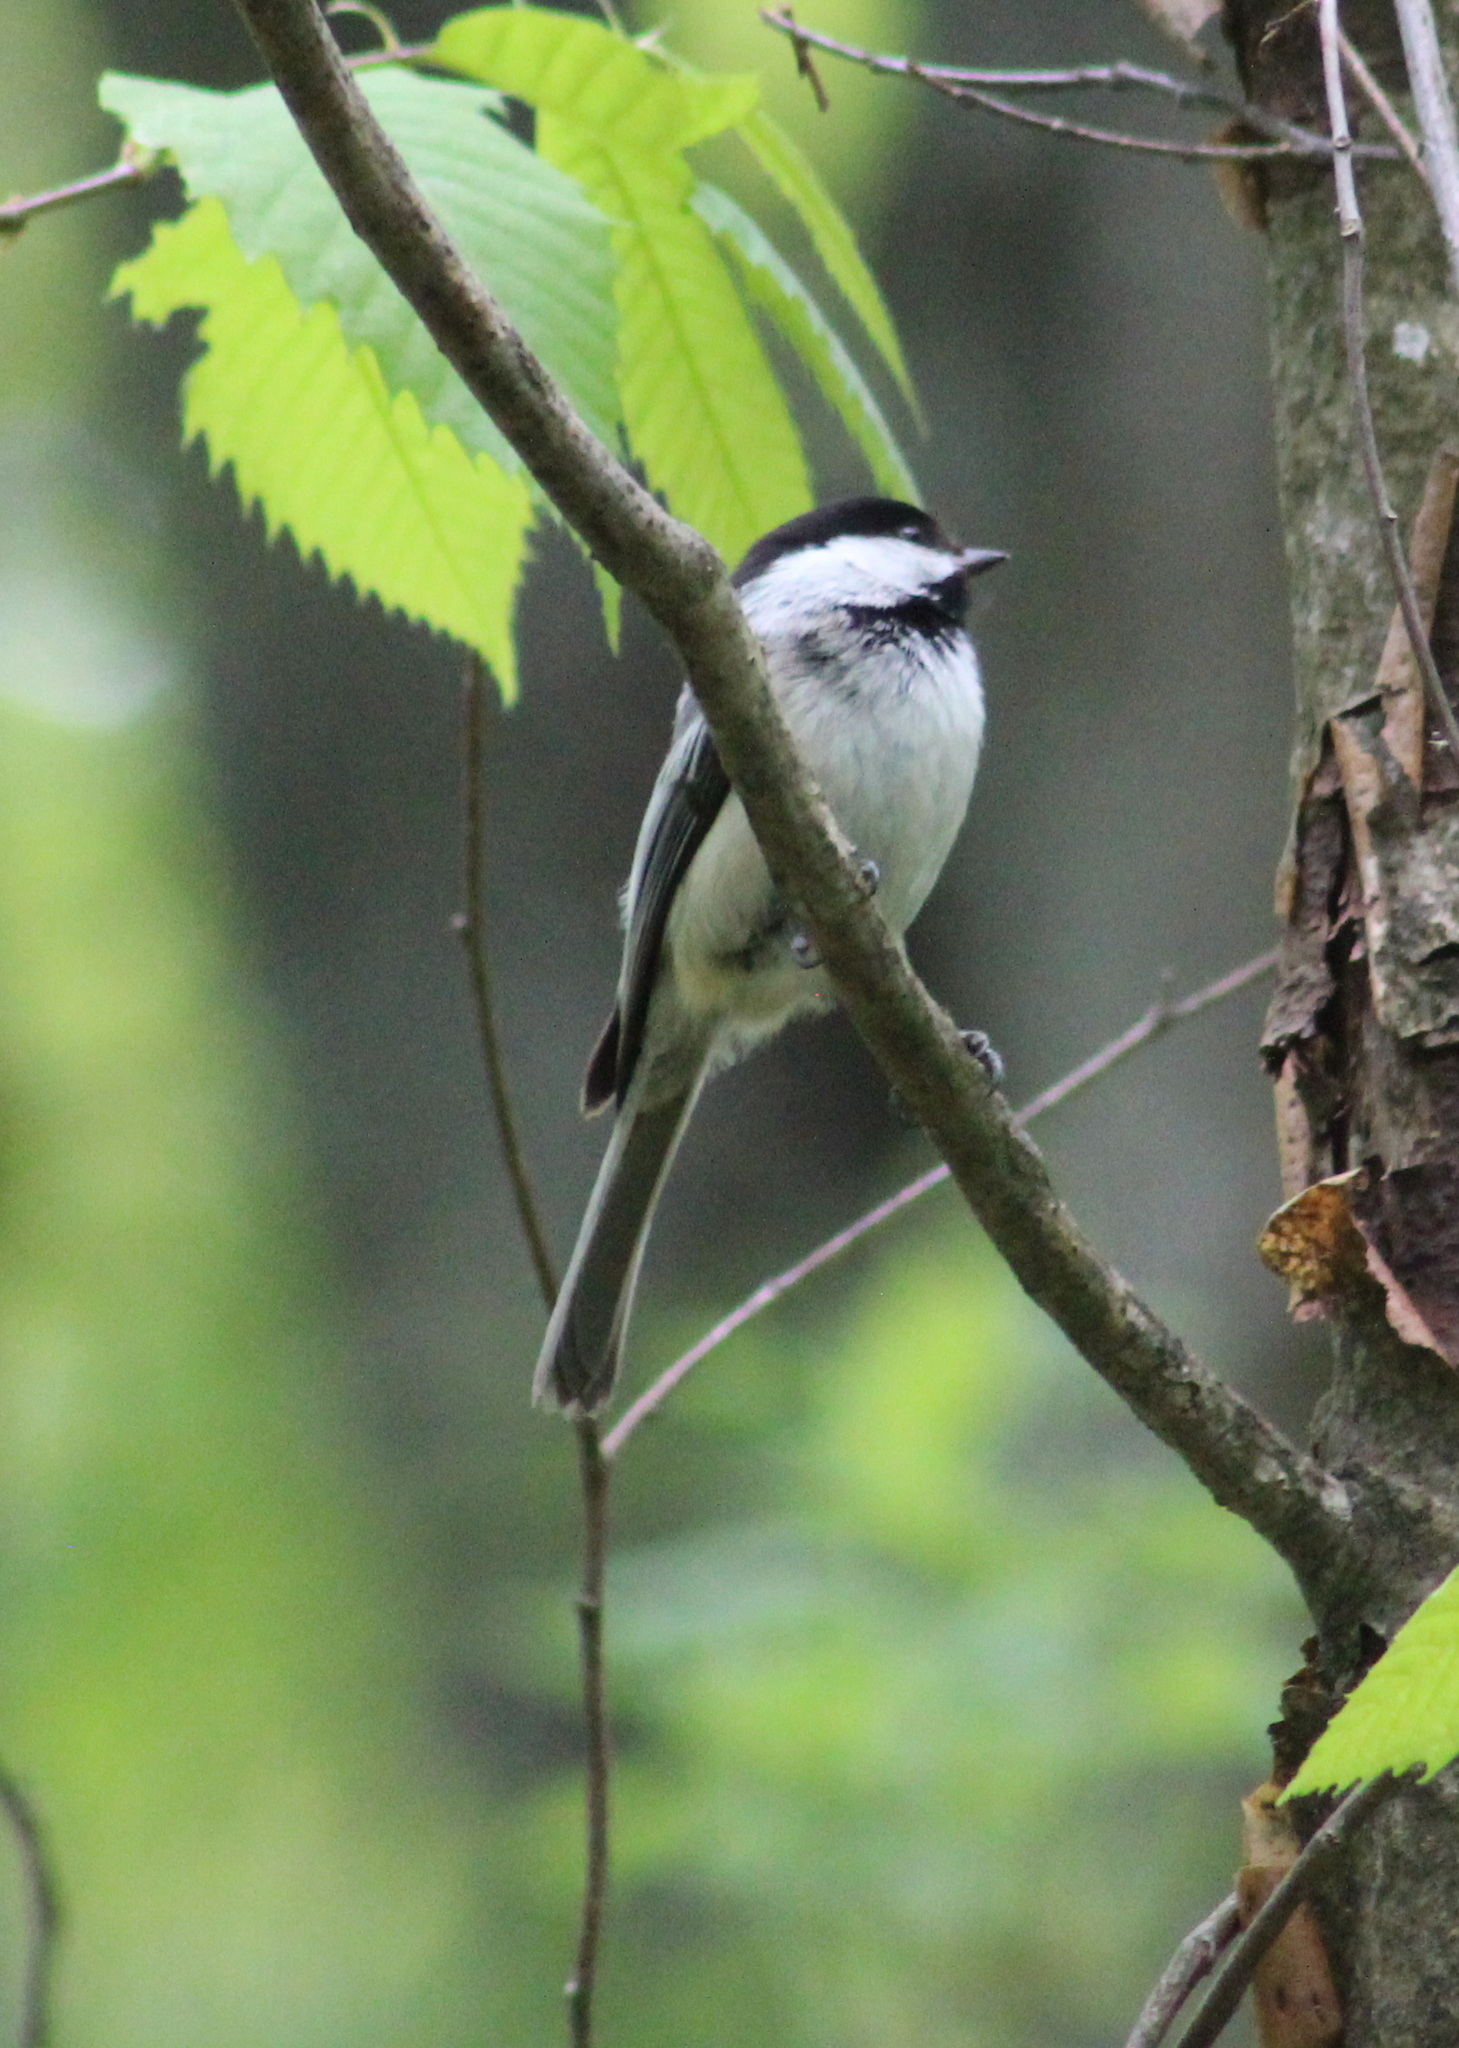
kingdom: Animalia
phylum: Chordata
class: Aves
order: Passeriformes
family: Paridae
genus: Poecile
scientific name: Poecile atricapillus
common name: Black-capped chickadee
